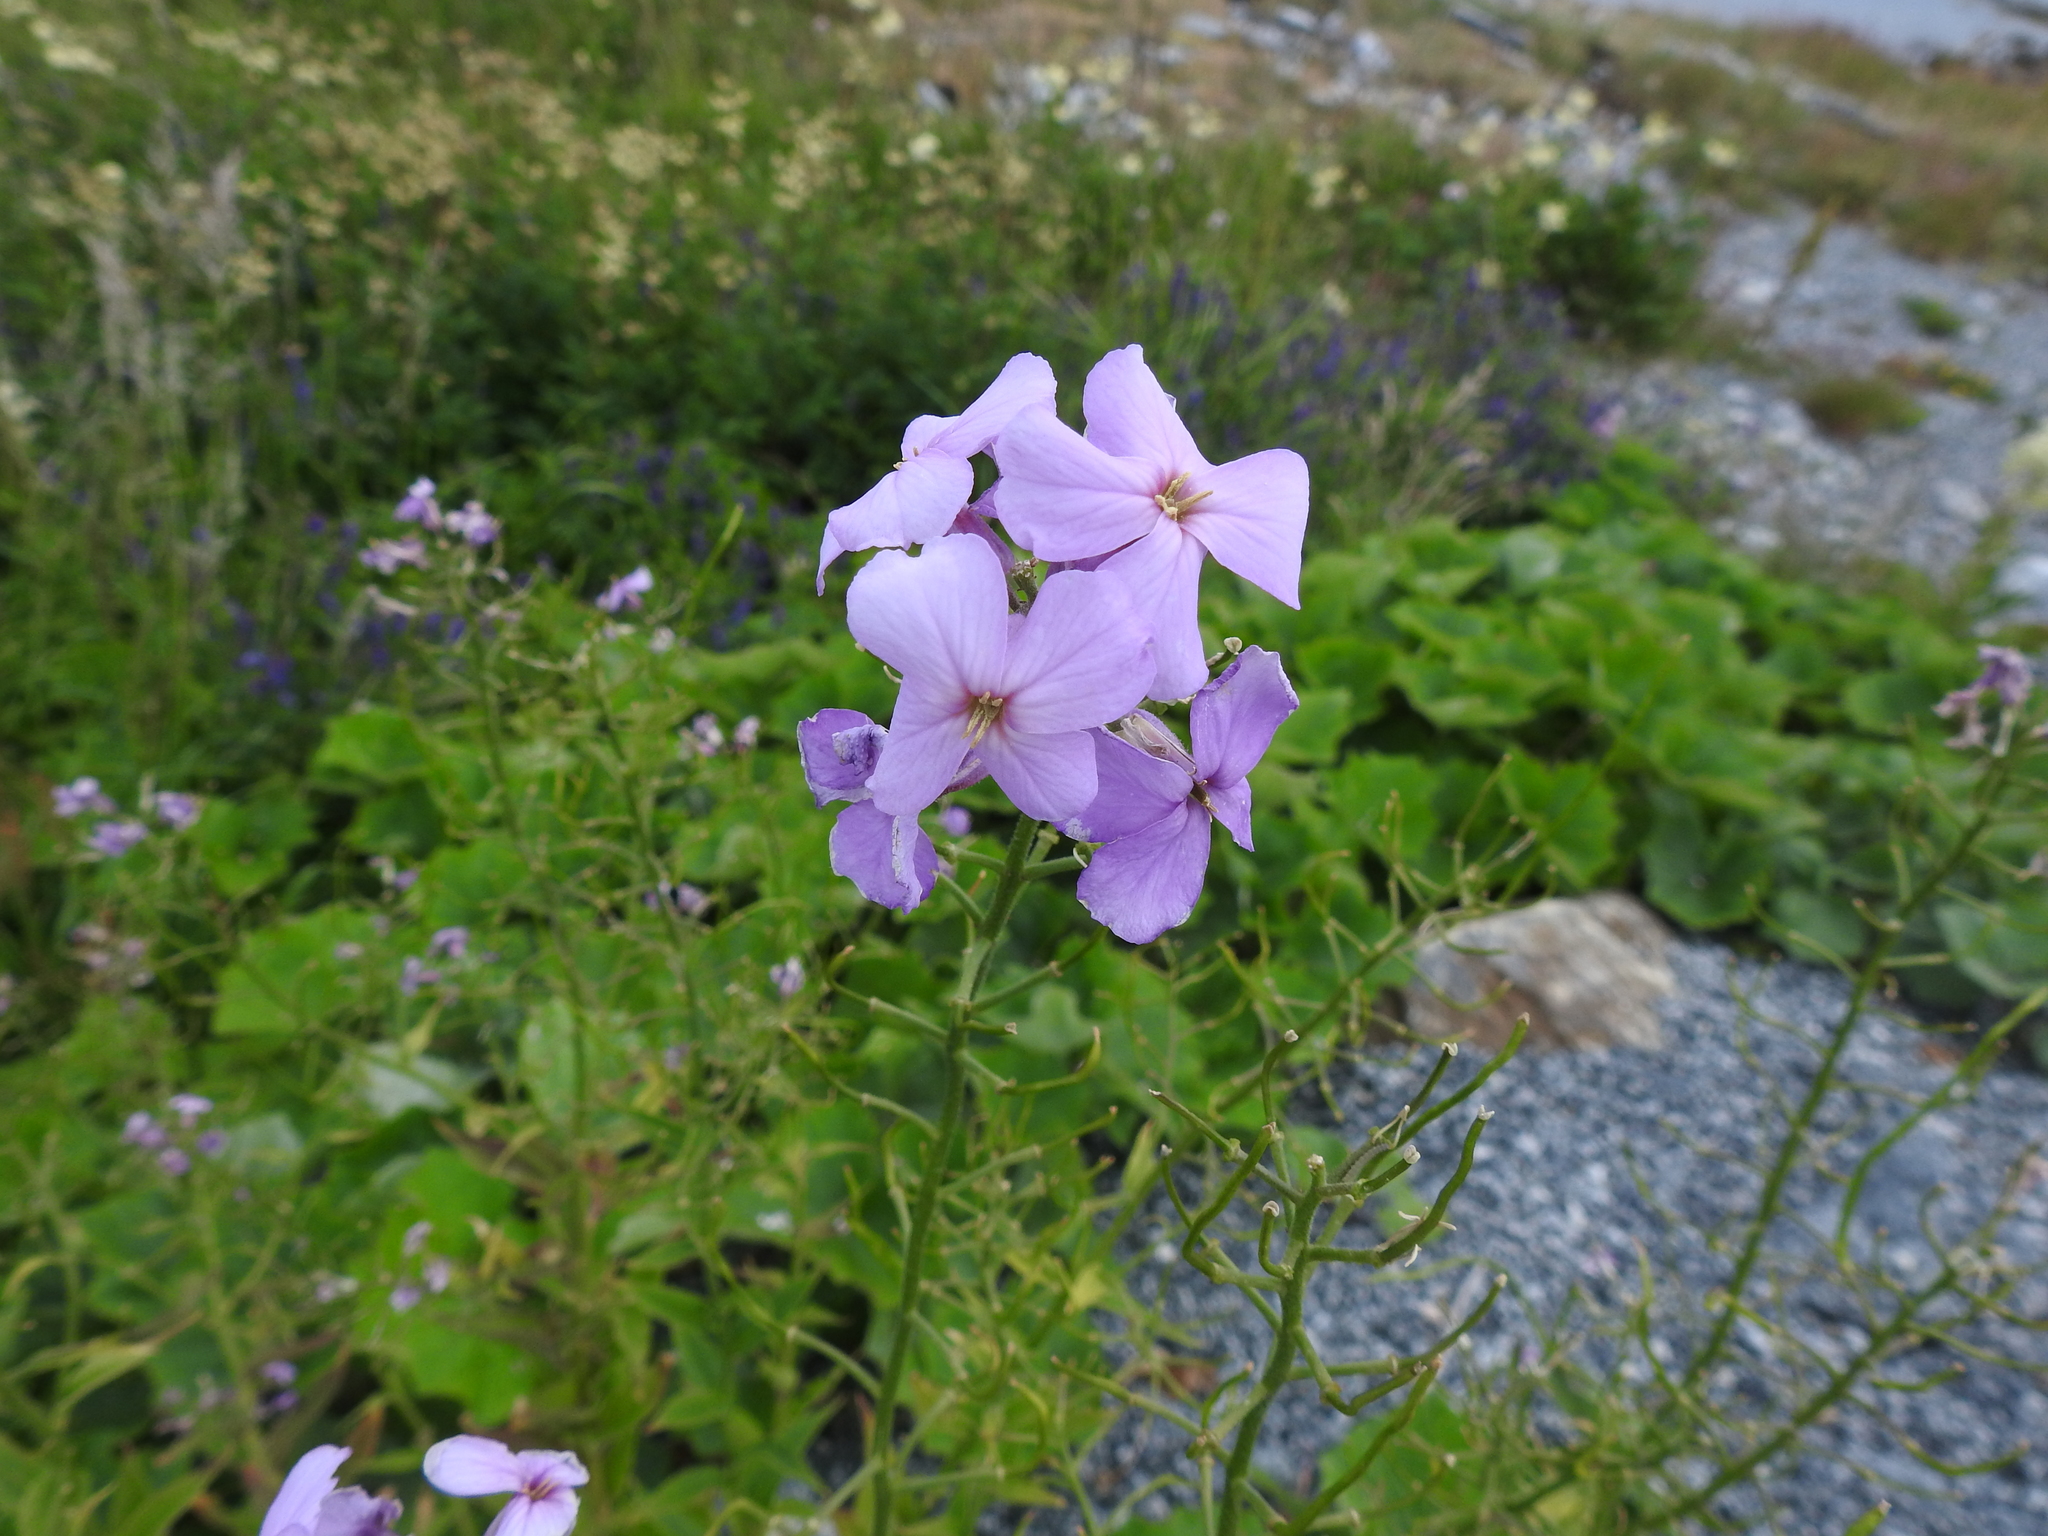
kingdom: Plantae
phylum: Tracheophyta
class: Magnoliopsida
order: Brassicales
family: Brassicaceae
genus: Hesperis
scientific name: Hesperis matronalis
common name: Dame's-violet
